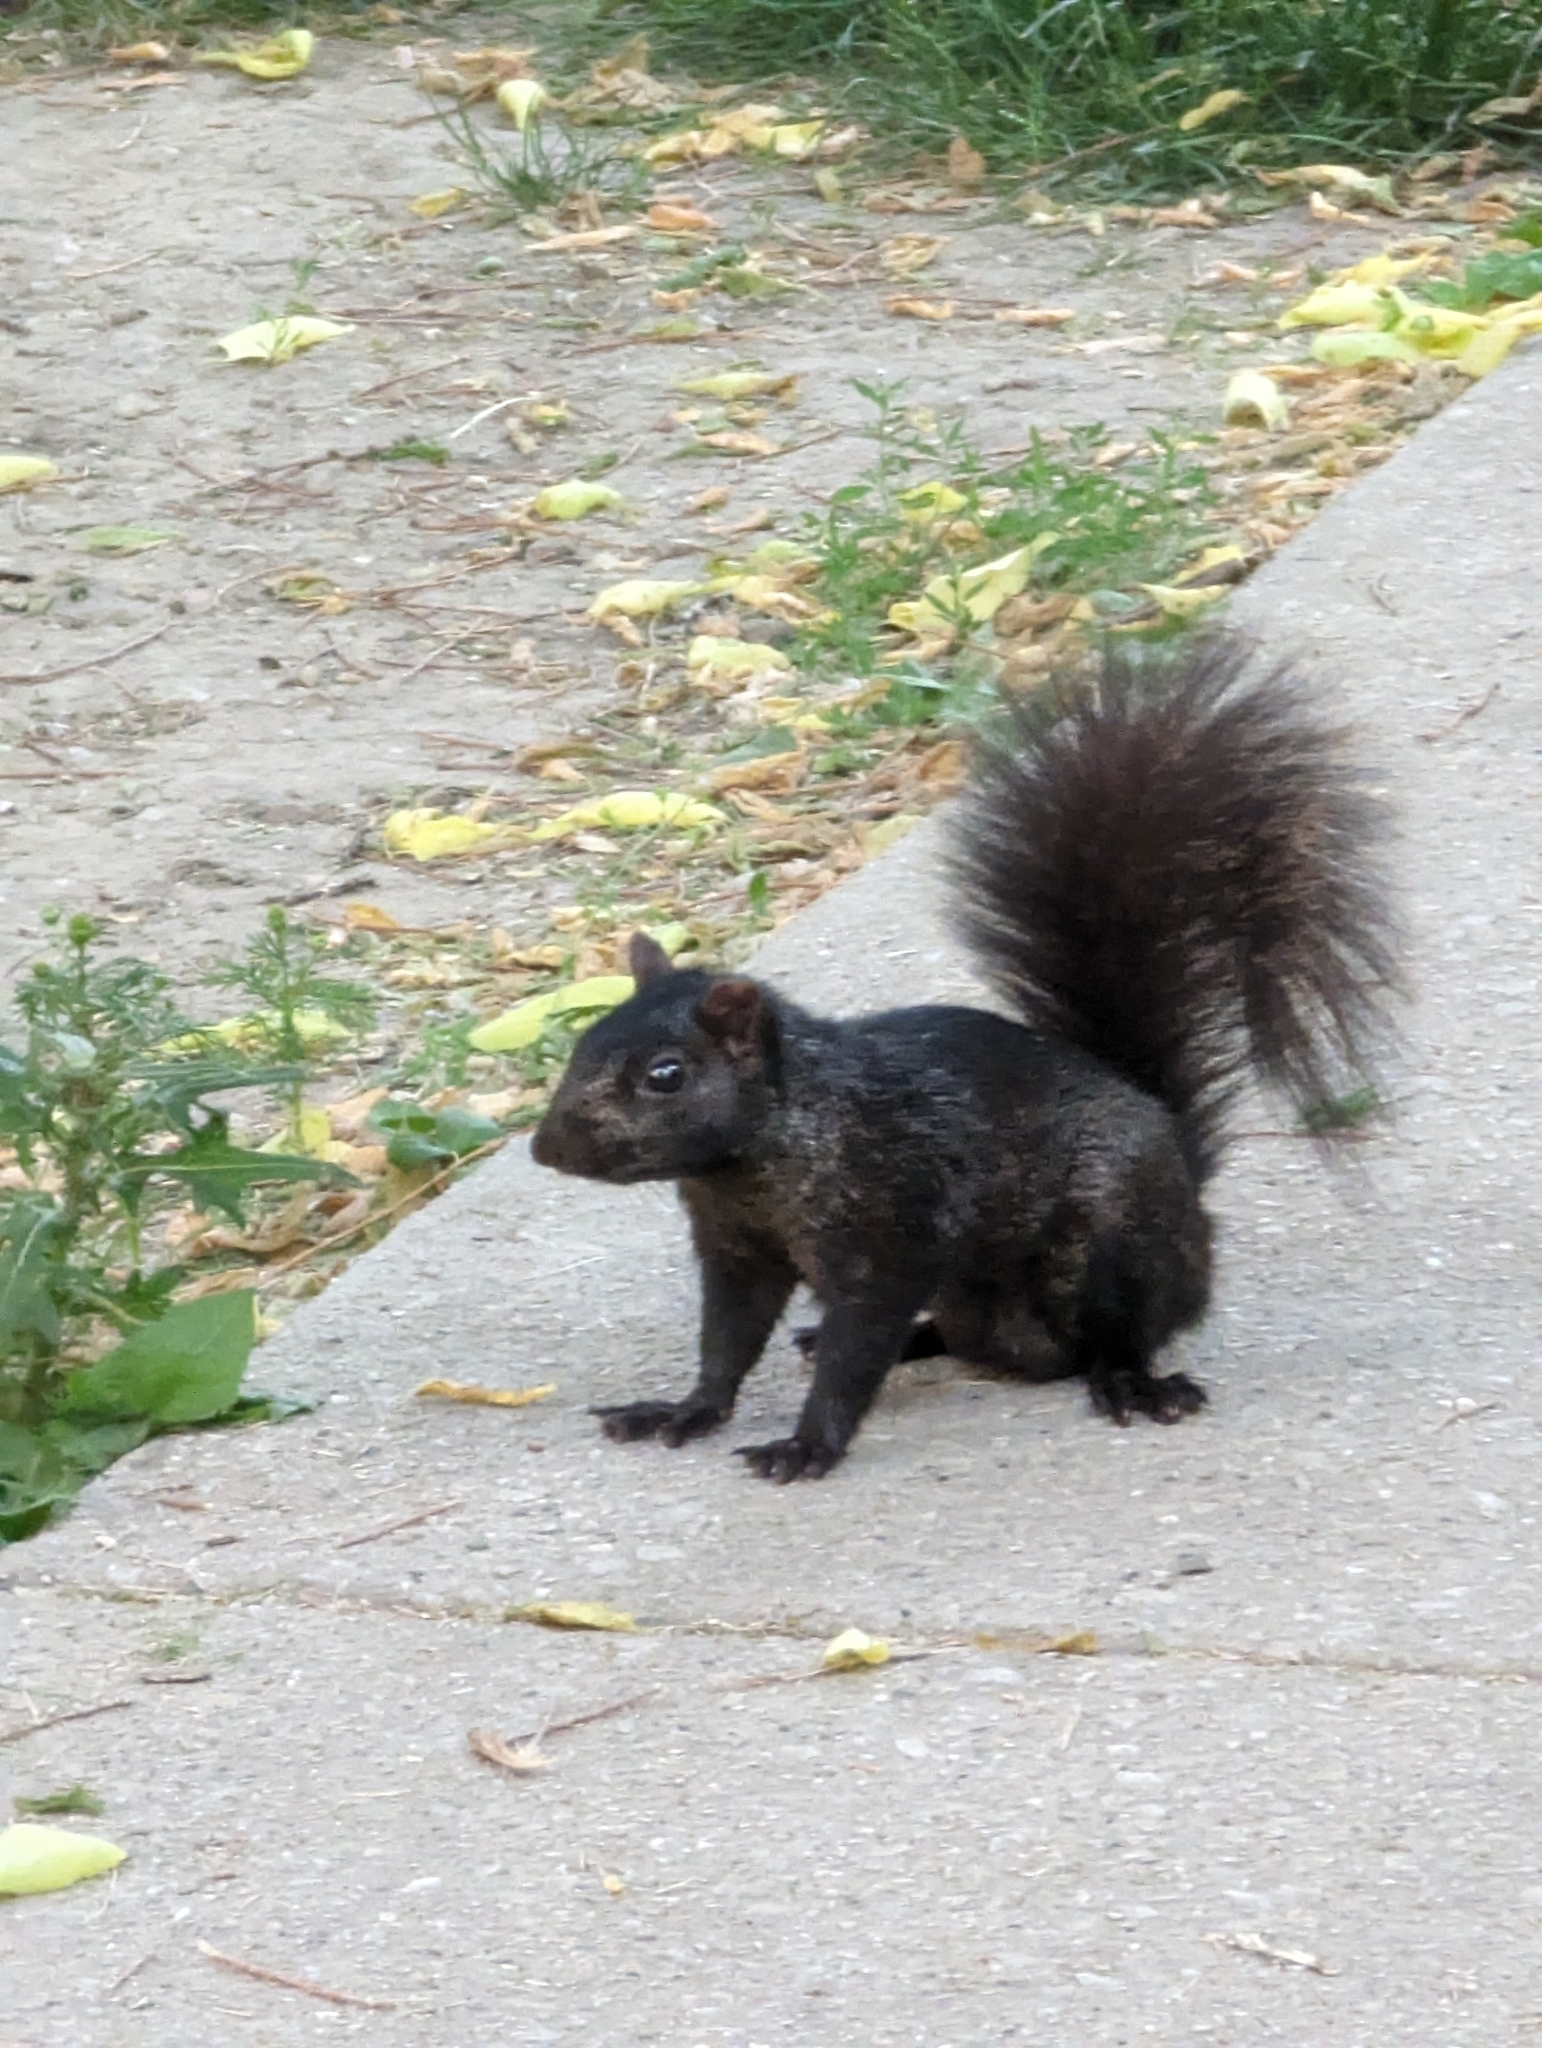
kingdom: Animalia
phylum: Chordata
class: Mammalia
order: Rodentia
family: Sciuridae
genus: Sciurus
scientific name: Sciurus carolinensis
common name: Eastern gray squirrel
